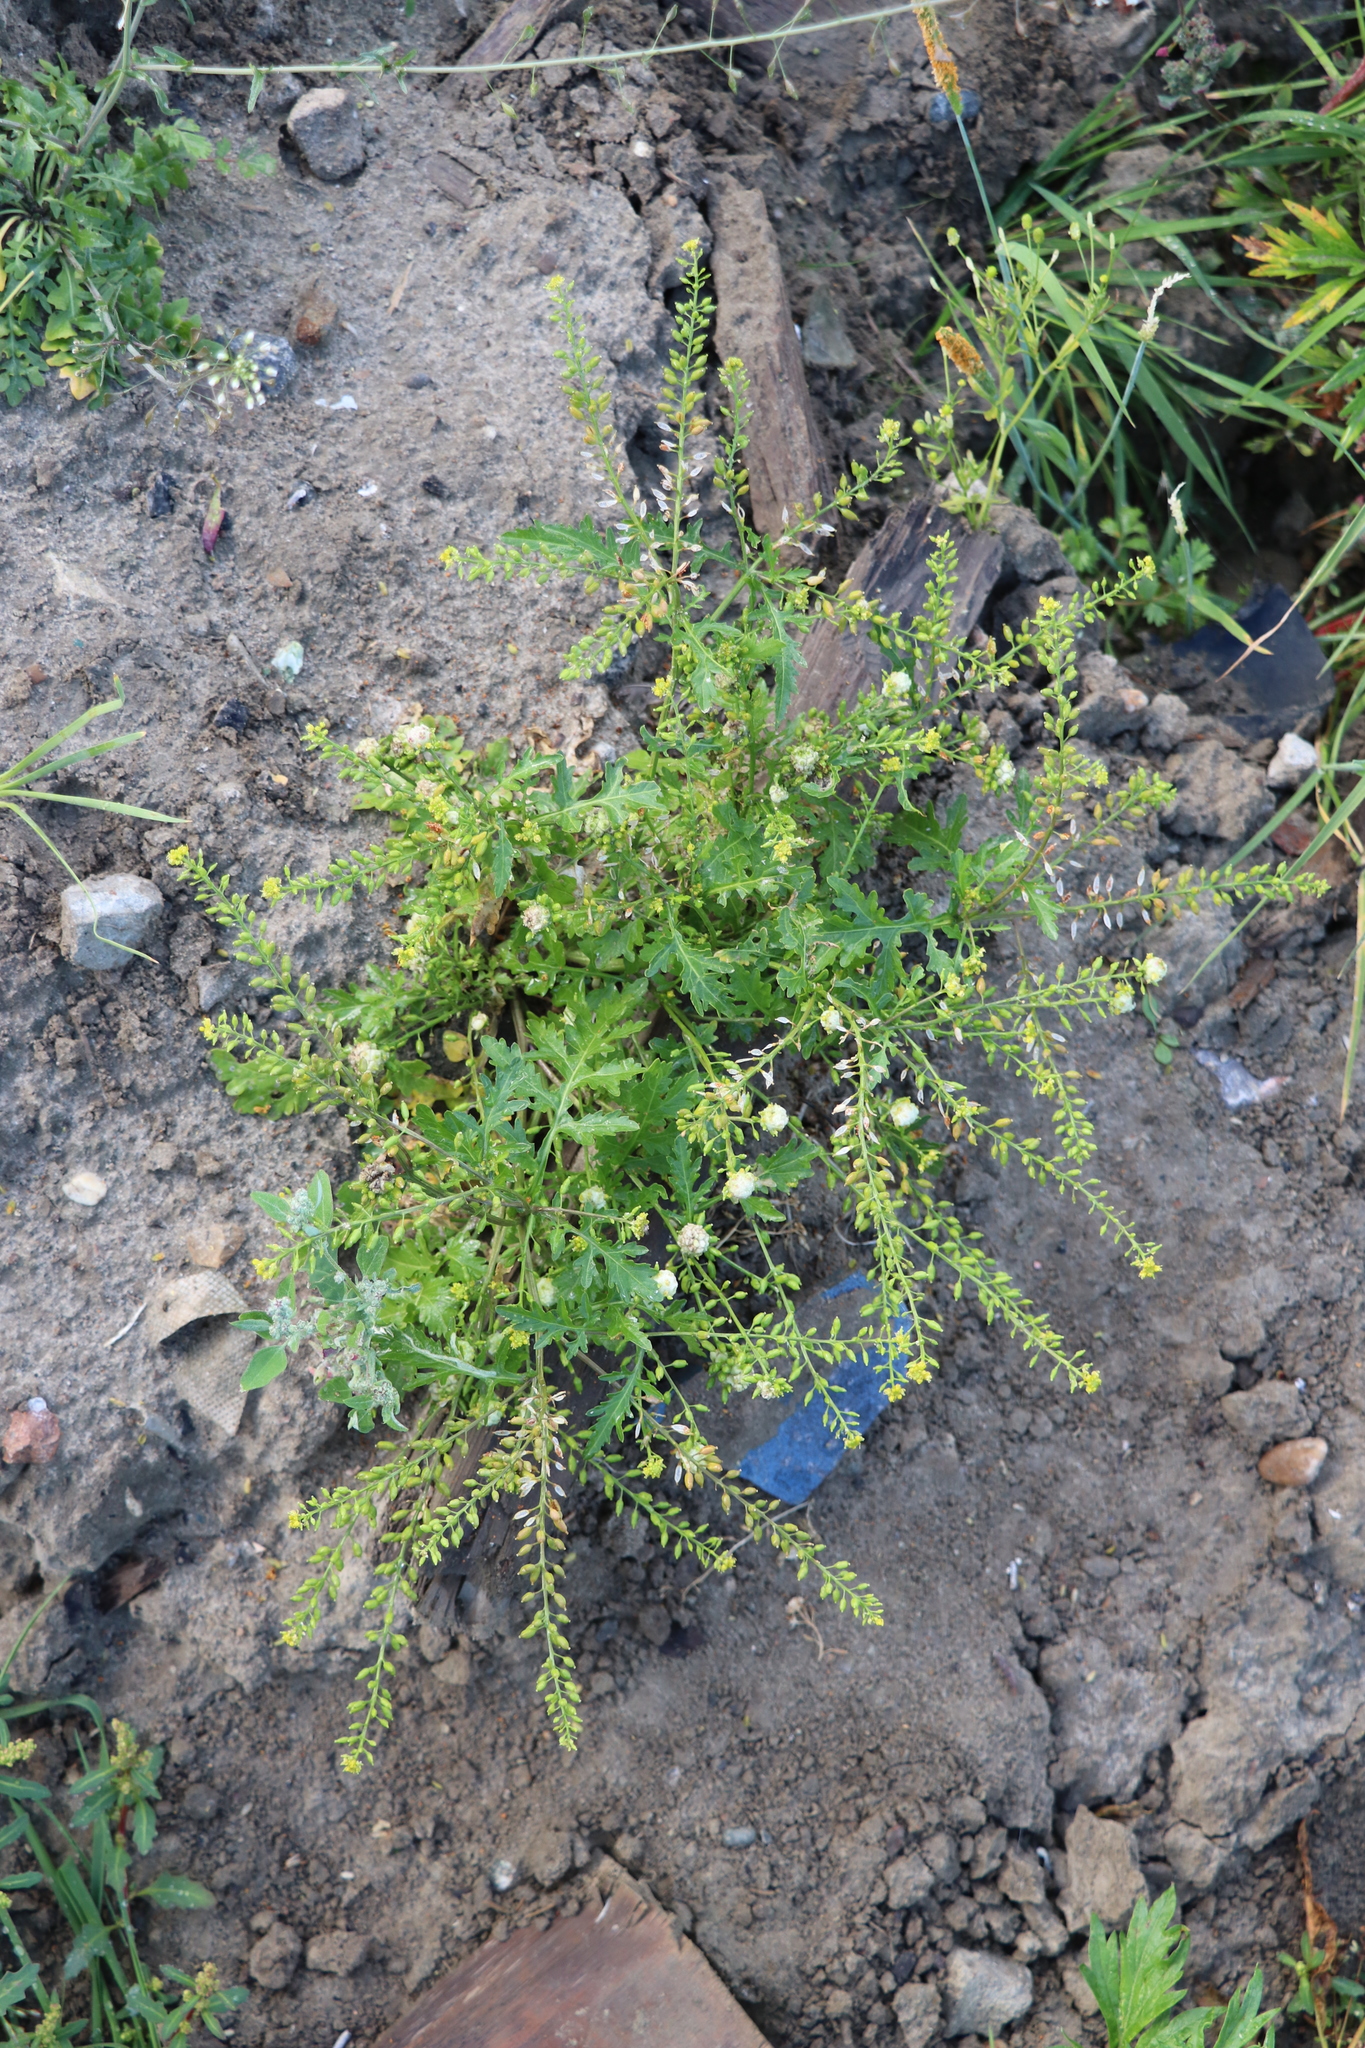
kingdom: Plantae
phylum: Tracheophyta
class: Magnoliopsida
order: Brassicales
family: Brassicaceae
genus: Rorippa
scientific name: Rorippa palustris
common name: Marsh yellow-cress
